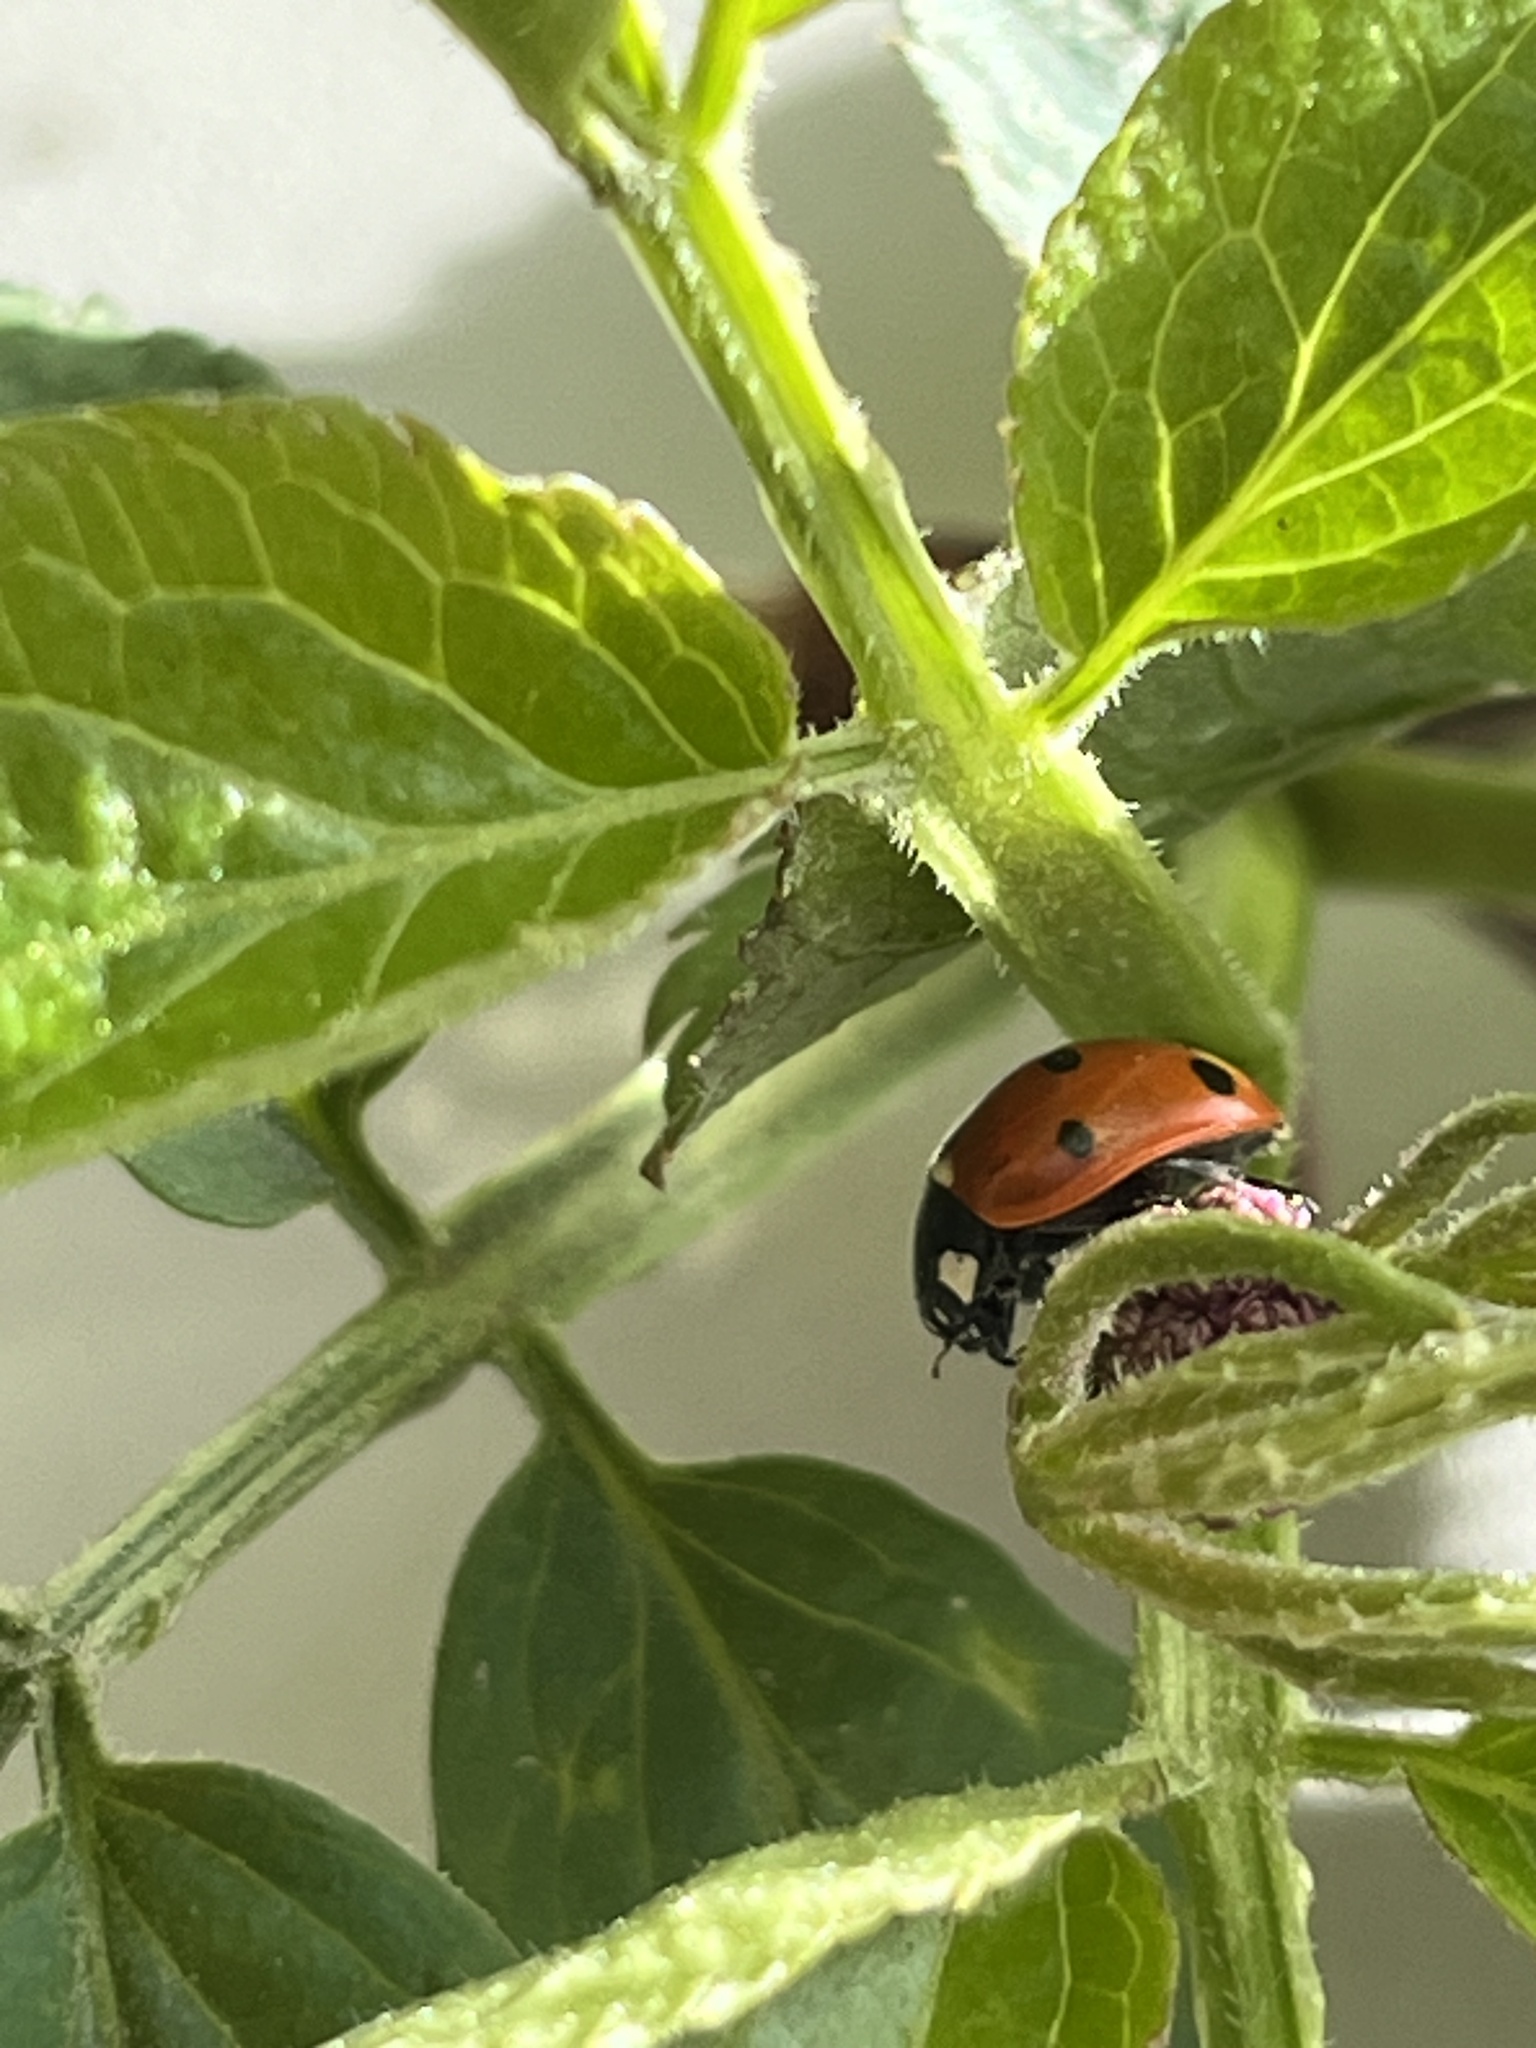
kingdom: Animalia
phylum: Arthropoda
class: Insecta
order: Coleoptera
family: Coccinellidae
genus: Coccinella
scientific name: Coccinella septempunctata
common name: Sevenspotted lady beetle
